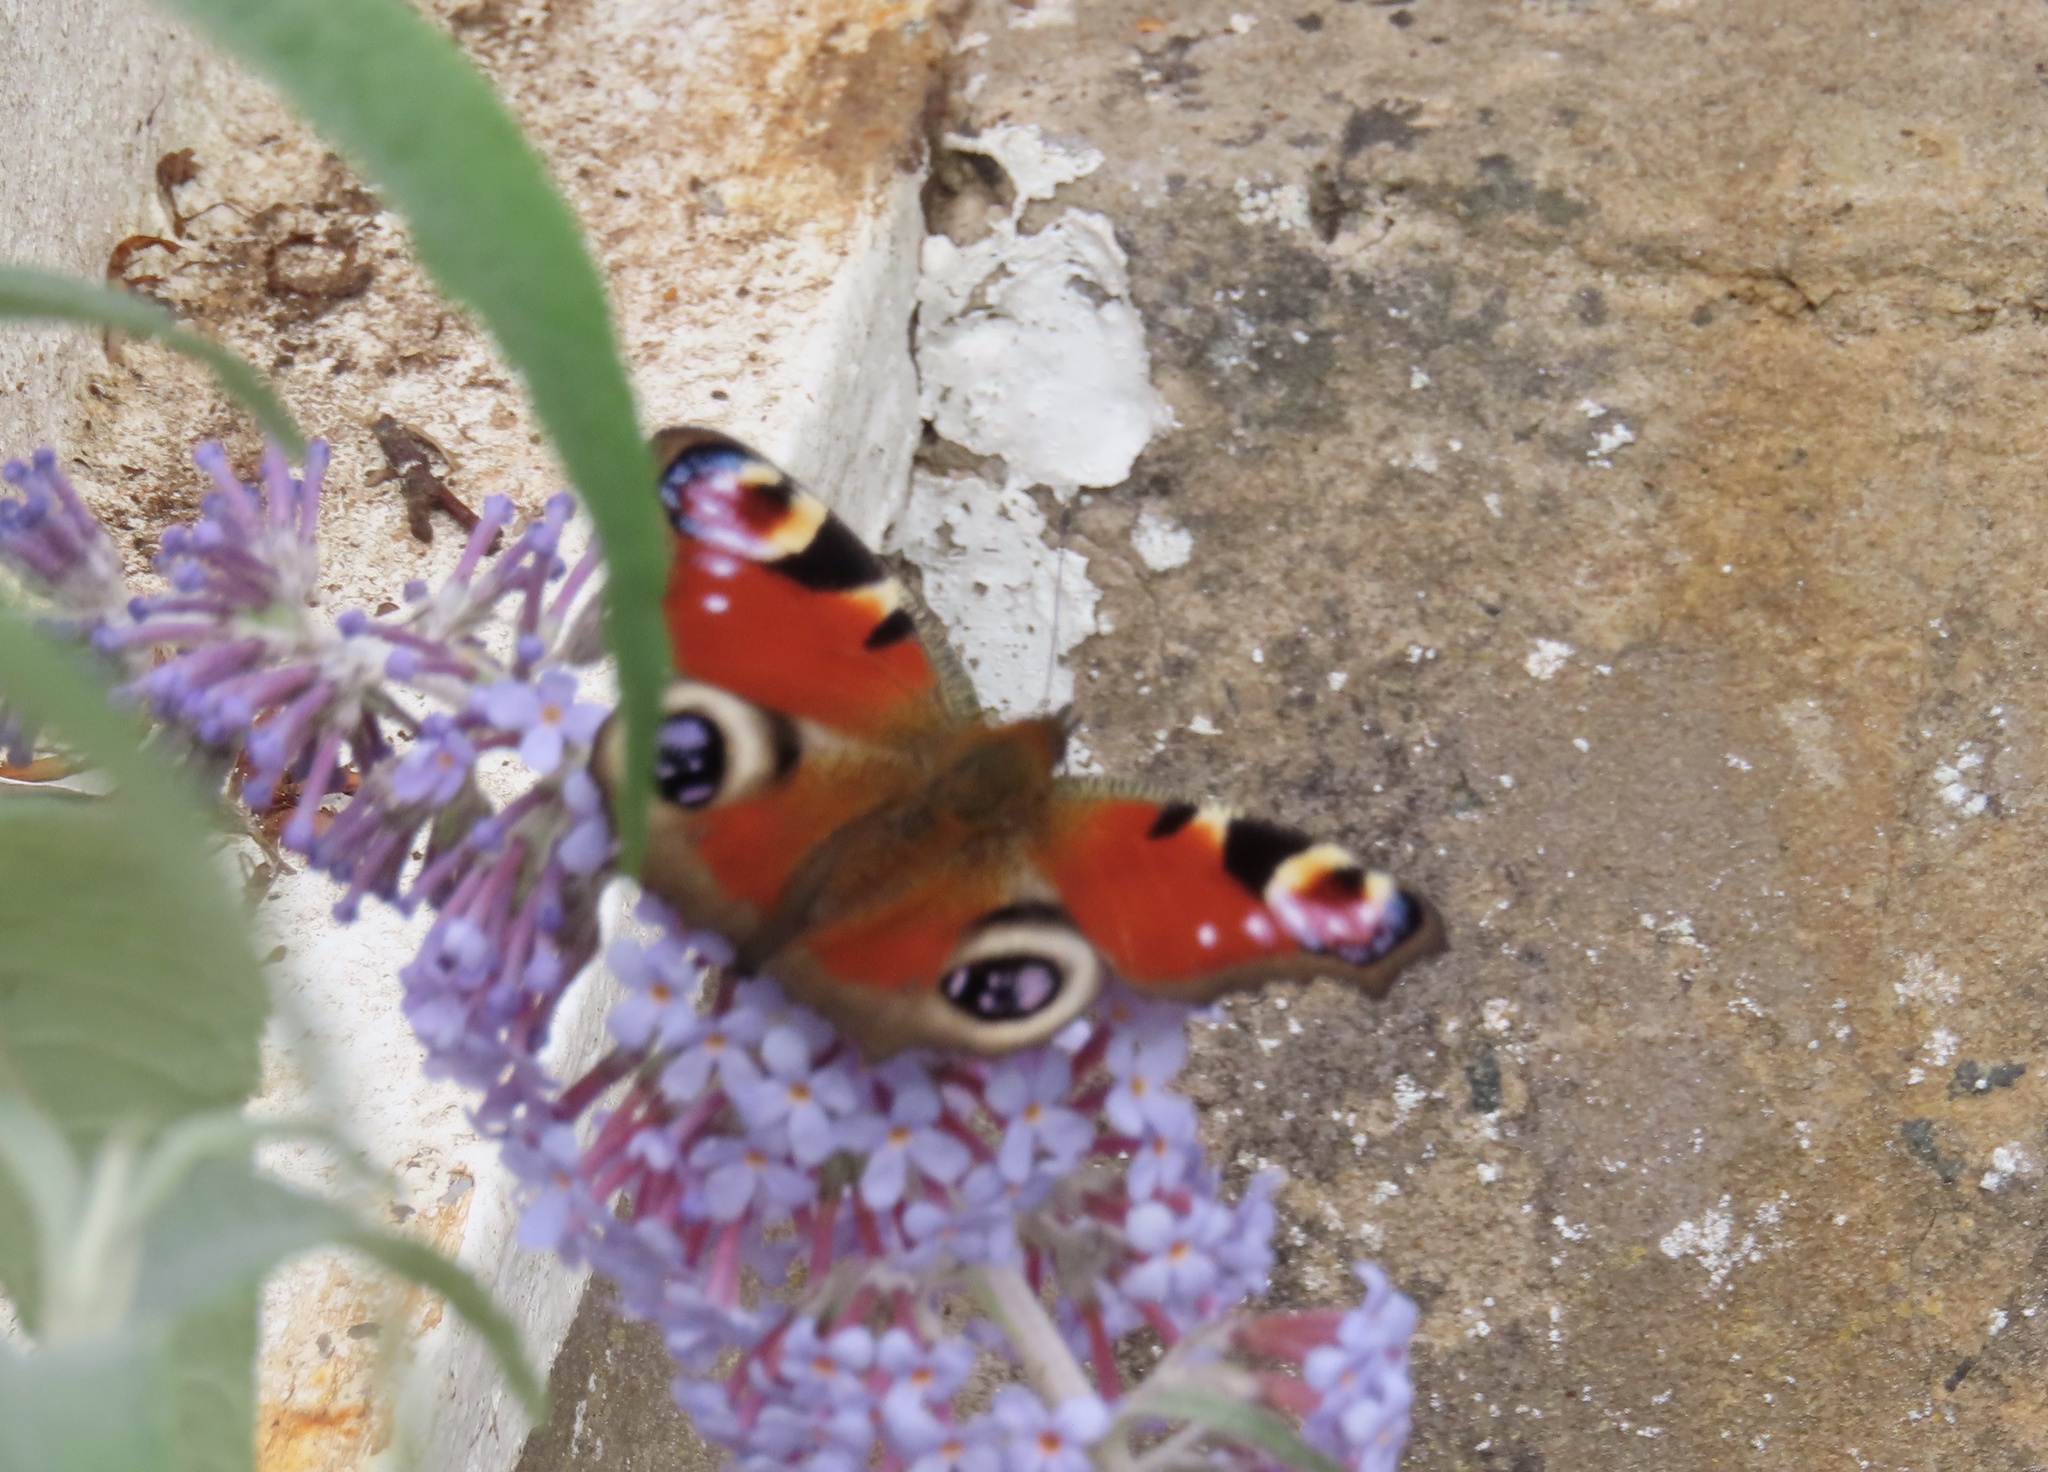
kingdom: Animalia
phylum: Arthropoda
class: Insecta
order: Lepidoptera
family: Nymphalidae
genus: Aglais
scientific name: Aglais io
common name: Peacock
